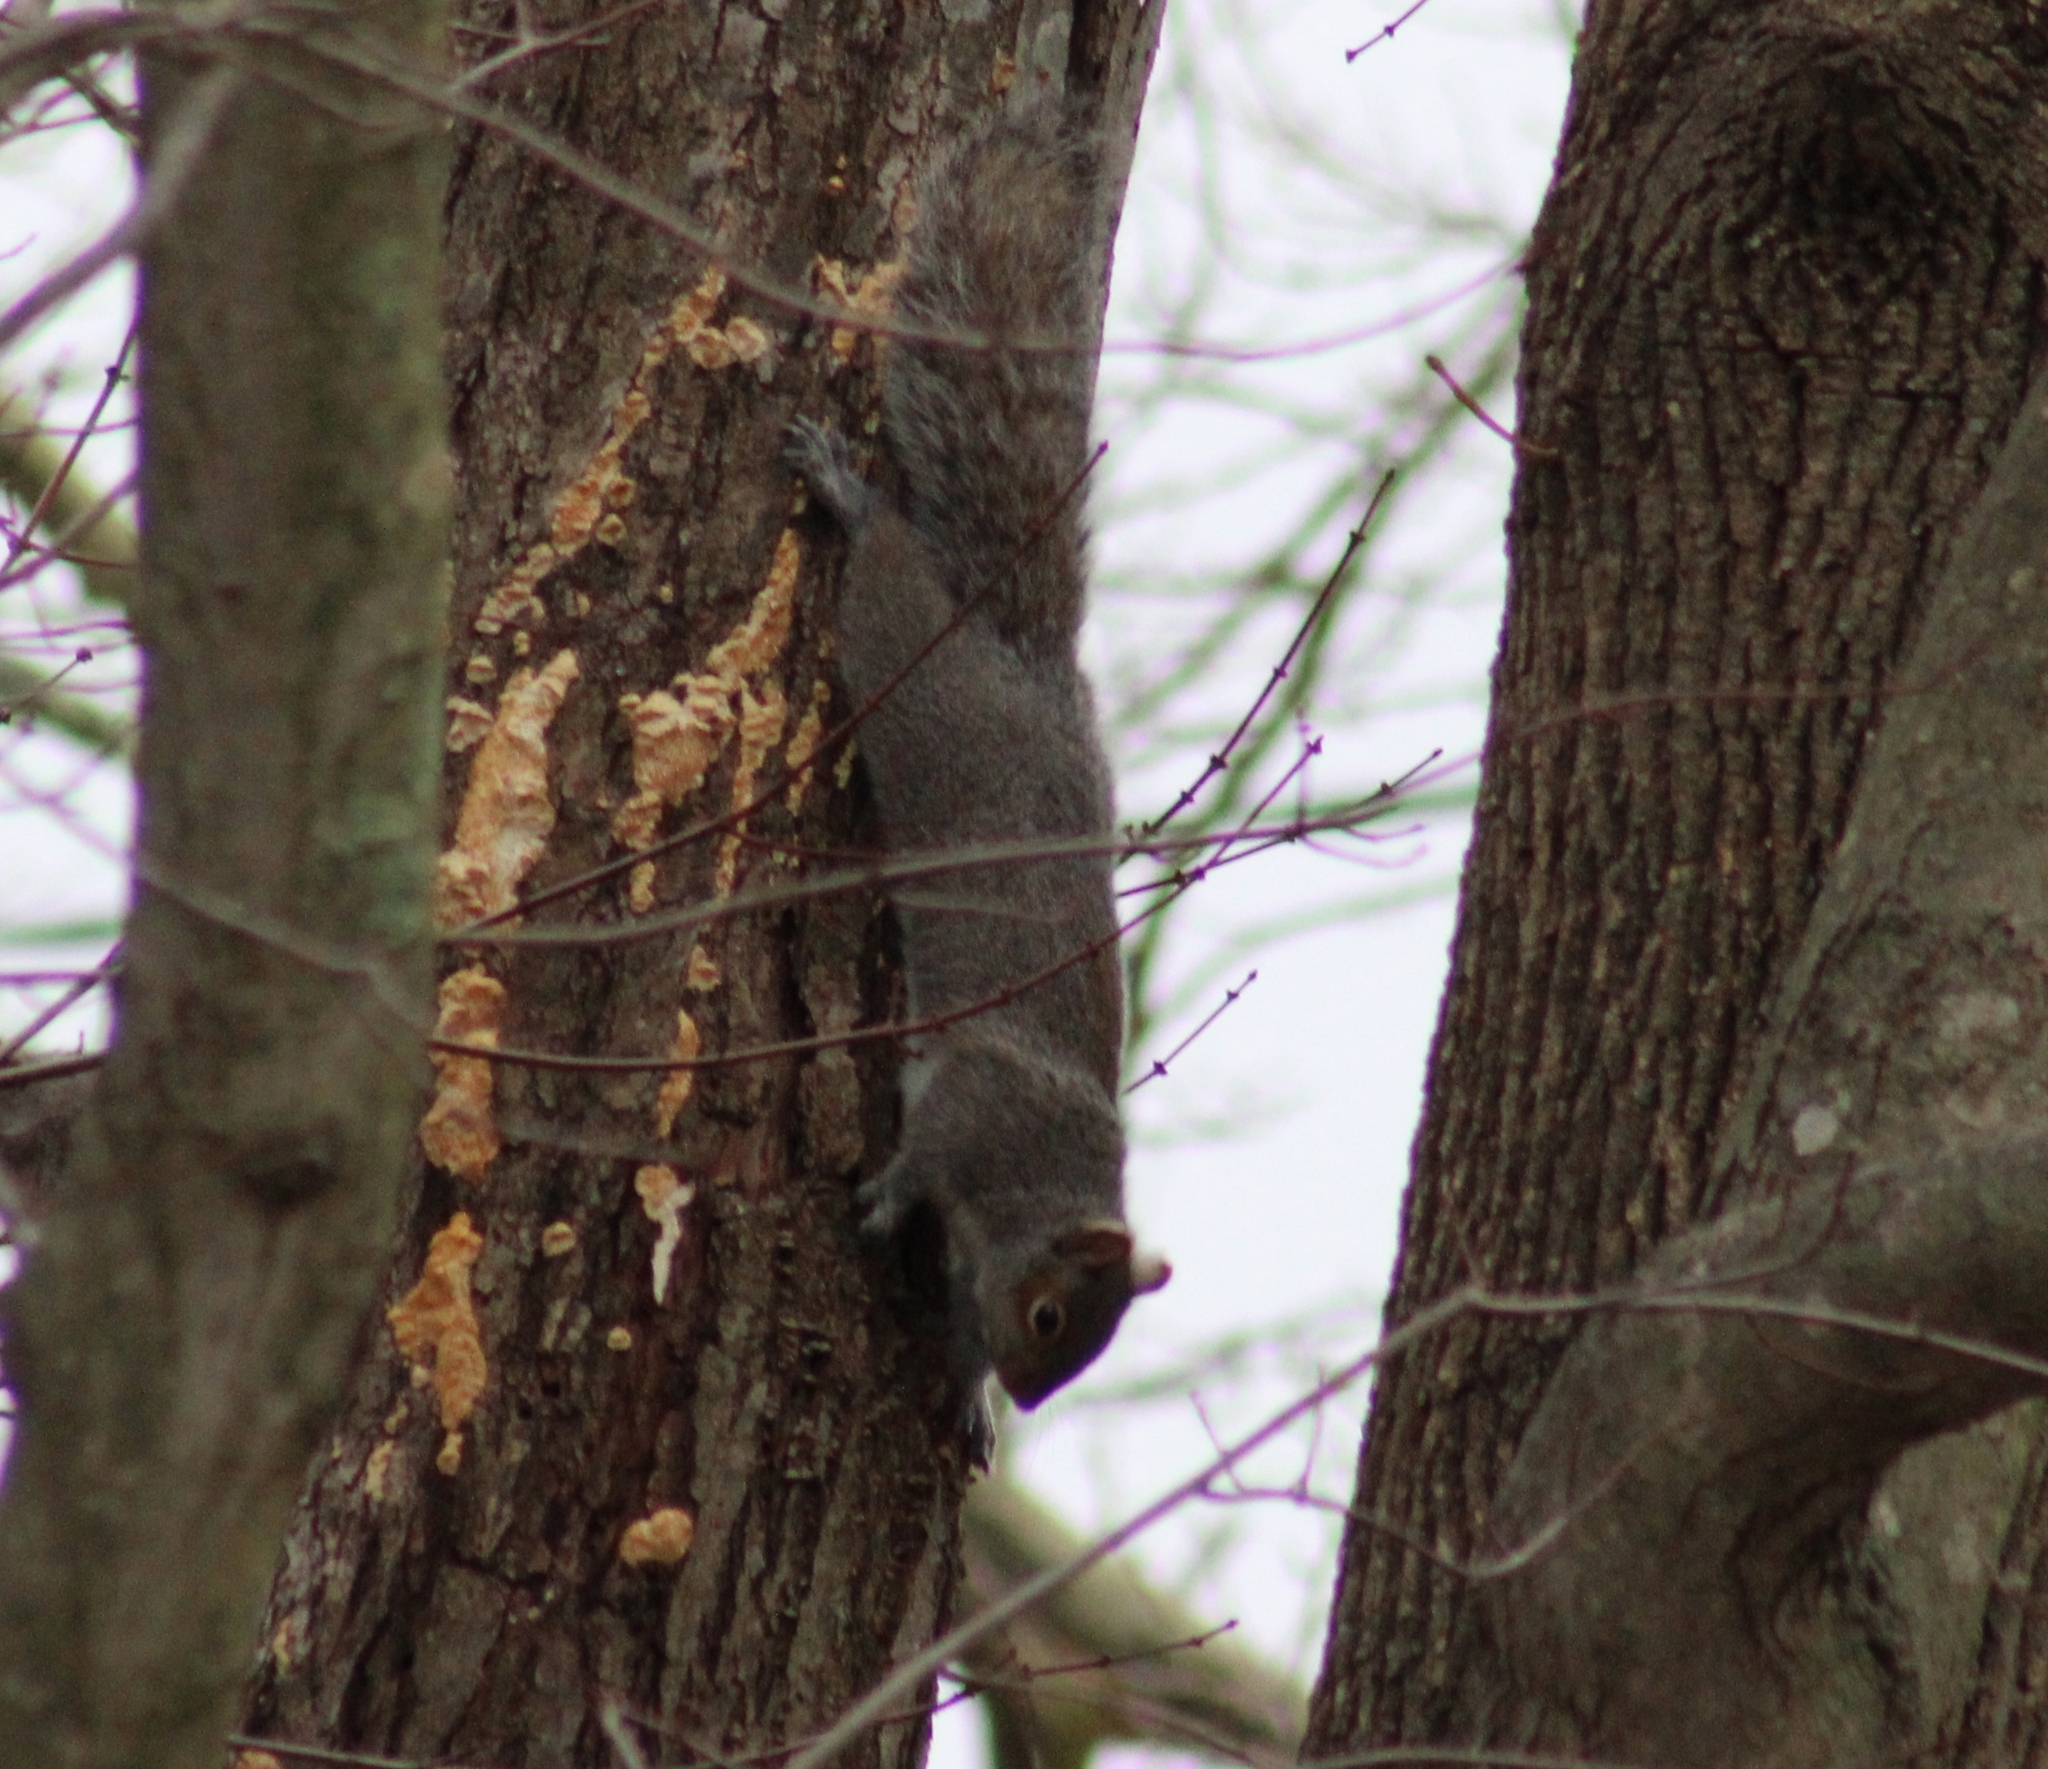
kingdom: Animalia
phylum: Chordata
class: Mammalia
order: Rodentia
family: Sciuridae
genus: Sciurus
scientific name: Sciurus carolinensis
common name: Eastern gray squirrel
